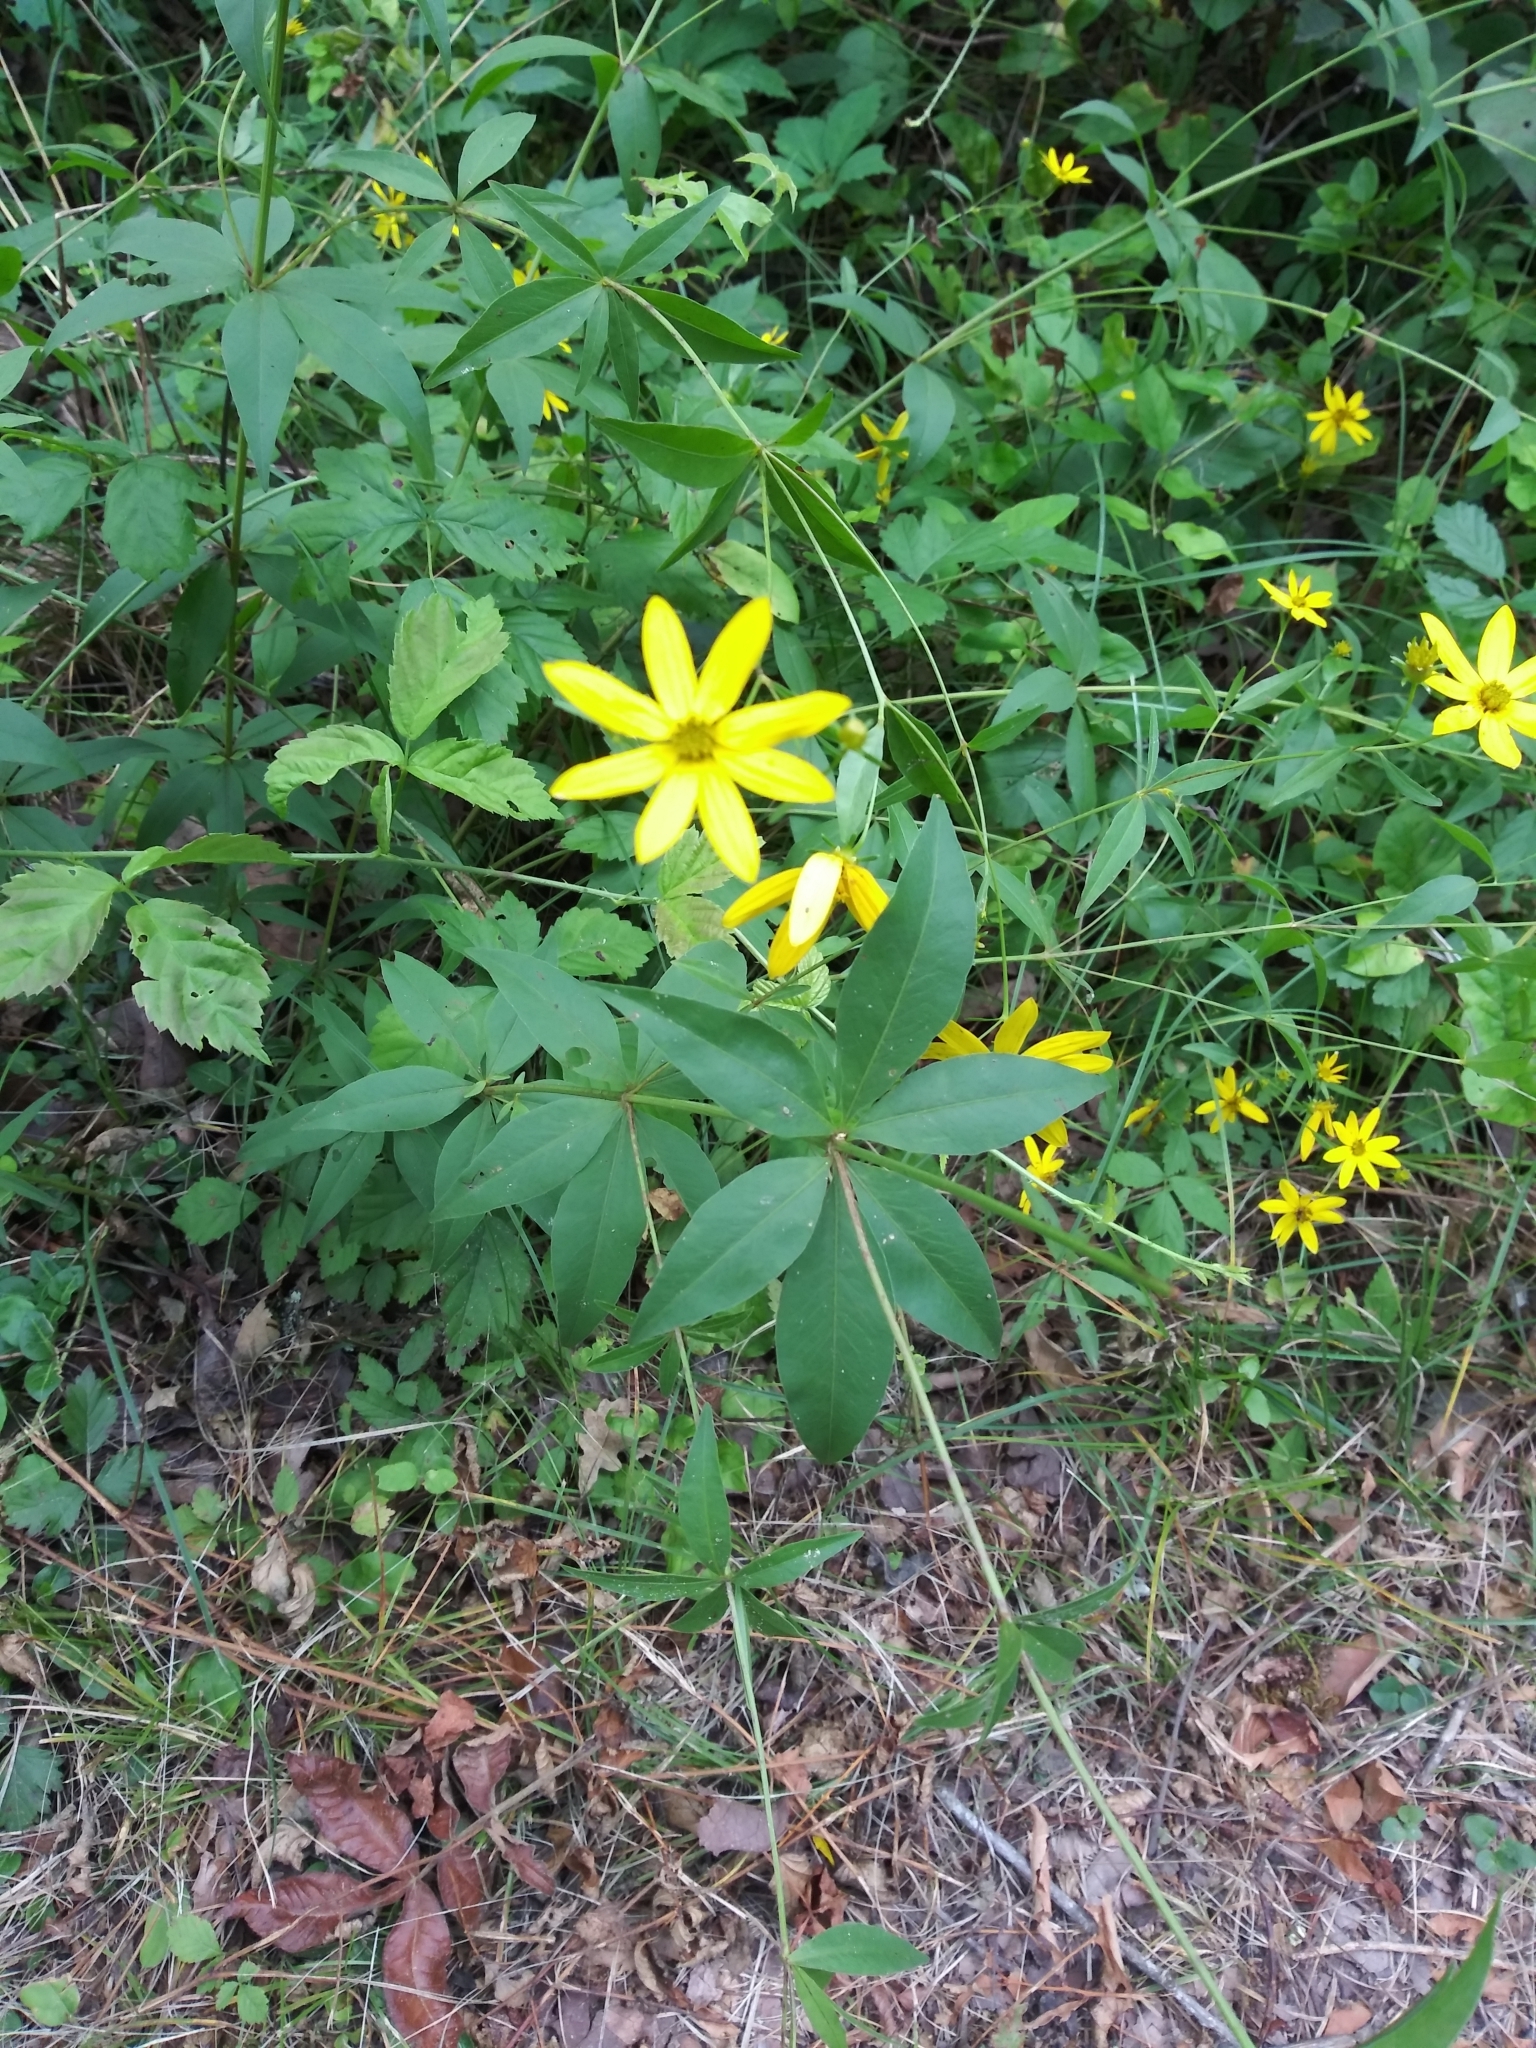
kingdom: Plantae
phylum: Tracheophyta
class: Magnoliopsida
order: Asterales
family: Asteraceae
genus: Coreopsis
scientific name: Coreopsis major
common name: Forest tickseed
